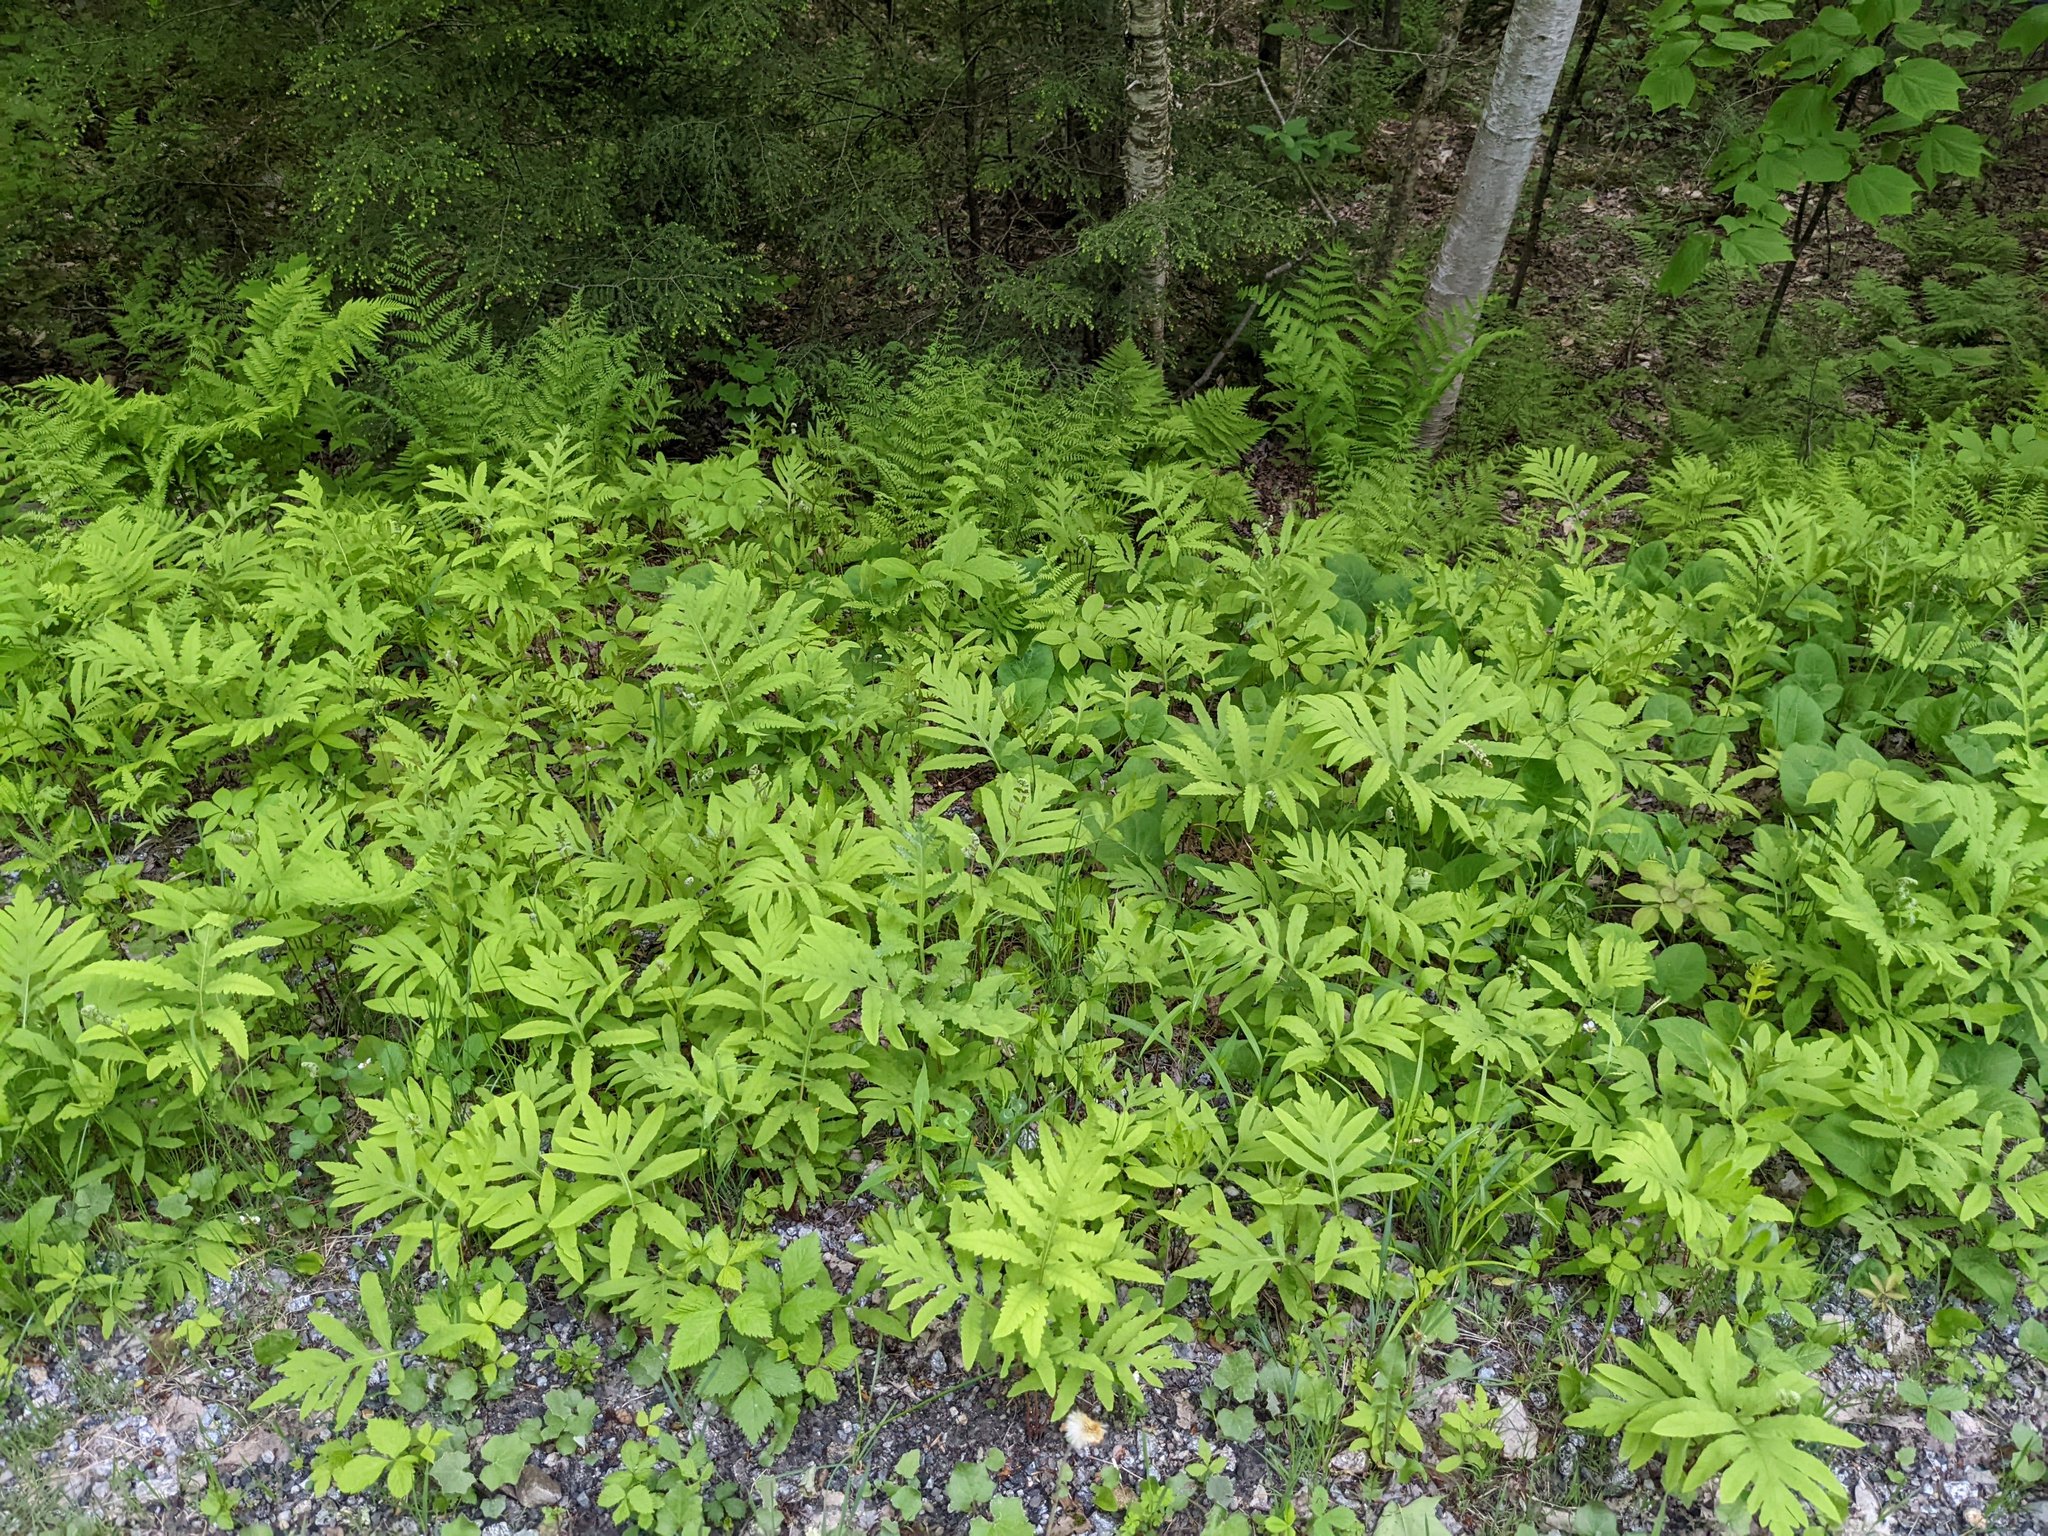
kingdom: Plantae
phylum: Tracheophyta
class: Polypodiopsida
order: Polypodiales
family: Onocleaceae
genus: Onoclea
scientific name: Onoclea sensibilis
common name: Sensitive fern
